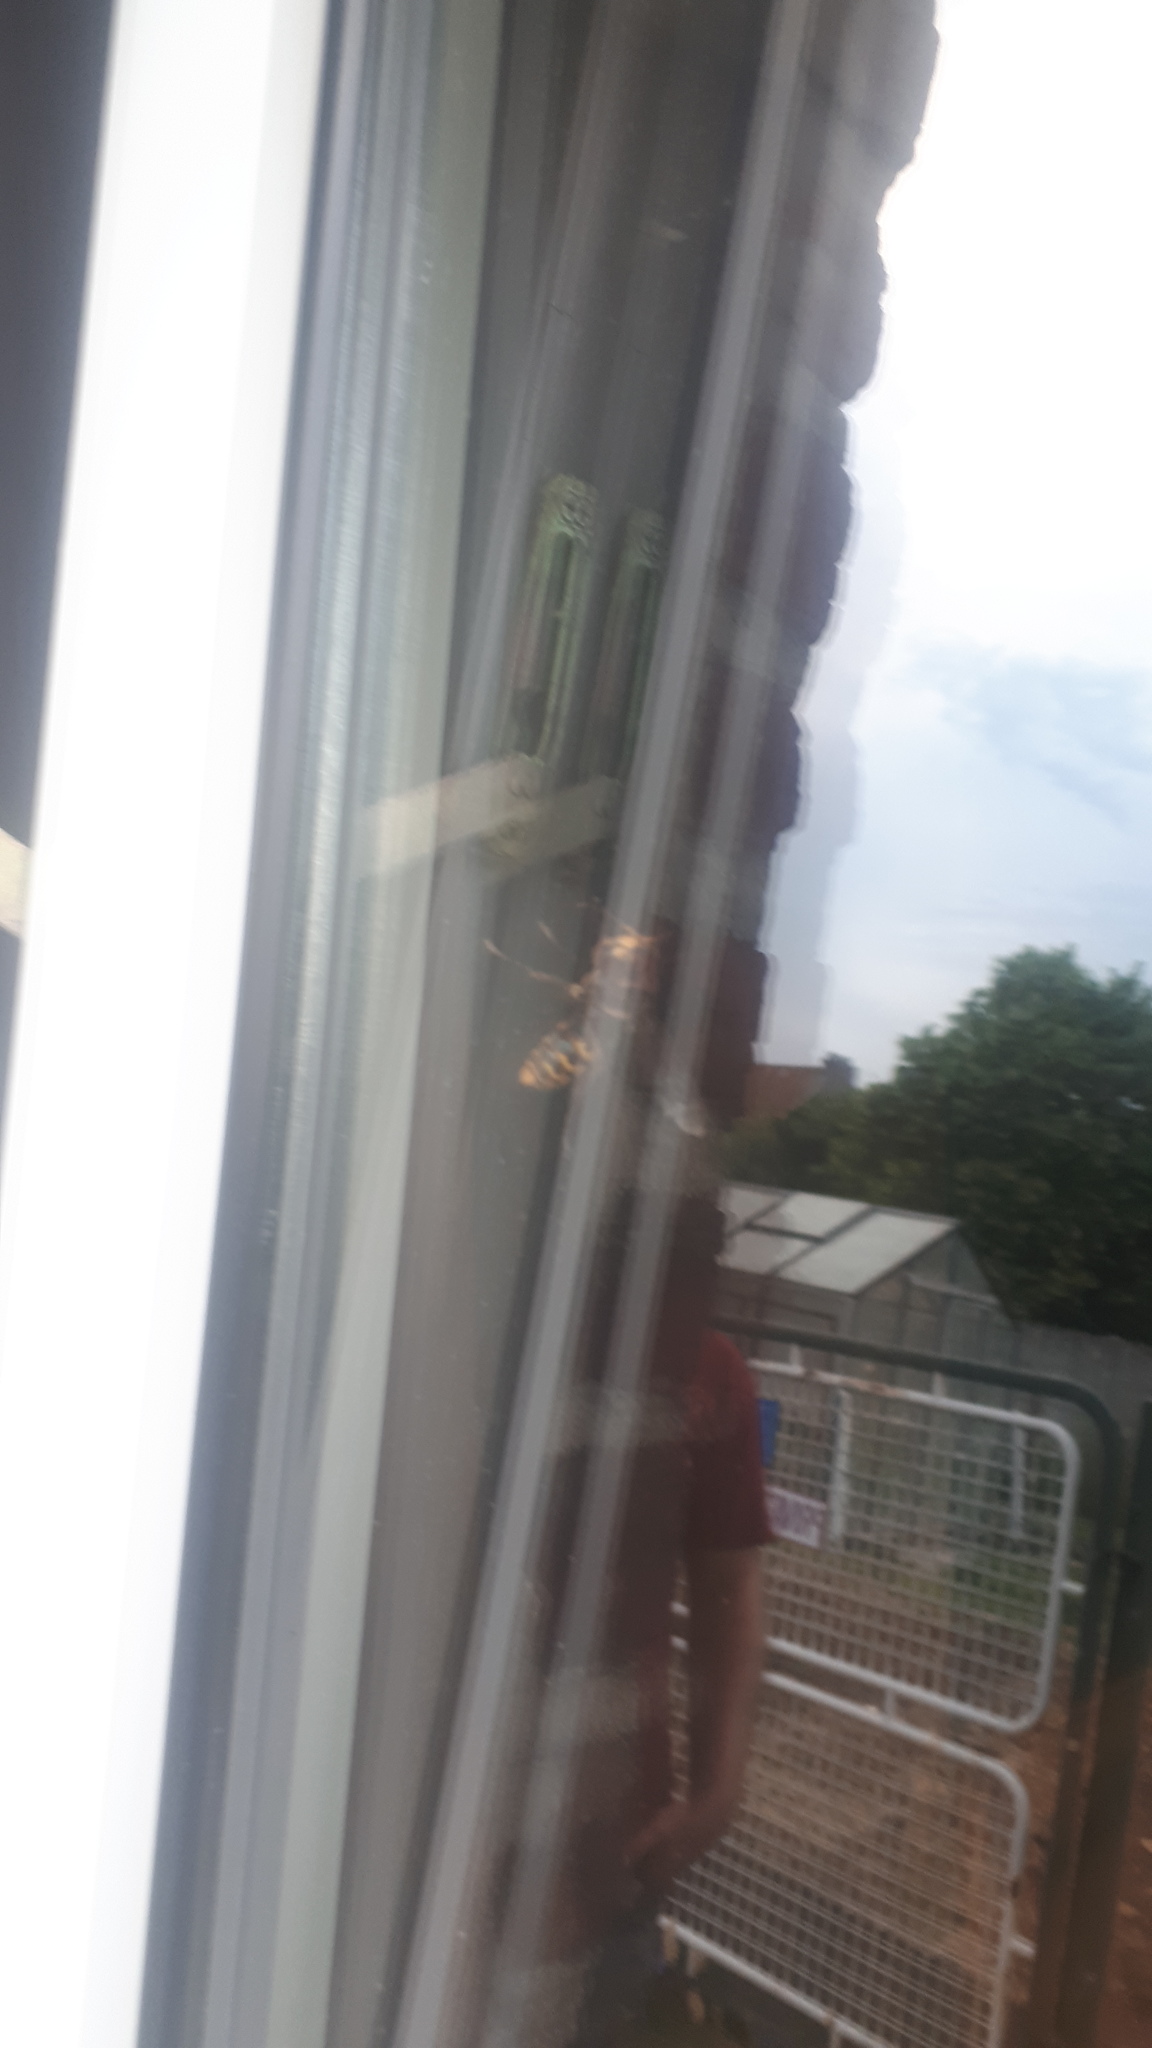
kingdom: Animalia
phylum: Arthropoda
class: Insecta
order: Hymenoptera
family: Vespidae
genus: Vespa
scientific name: Vespa crabro
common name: Hornet
